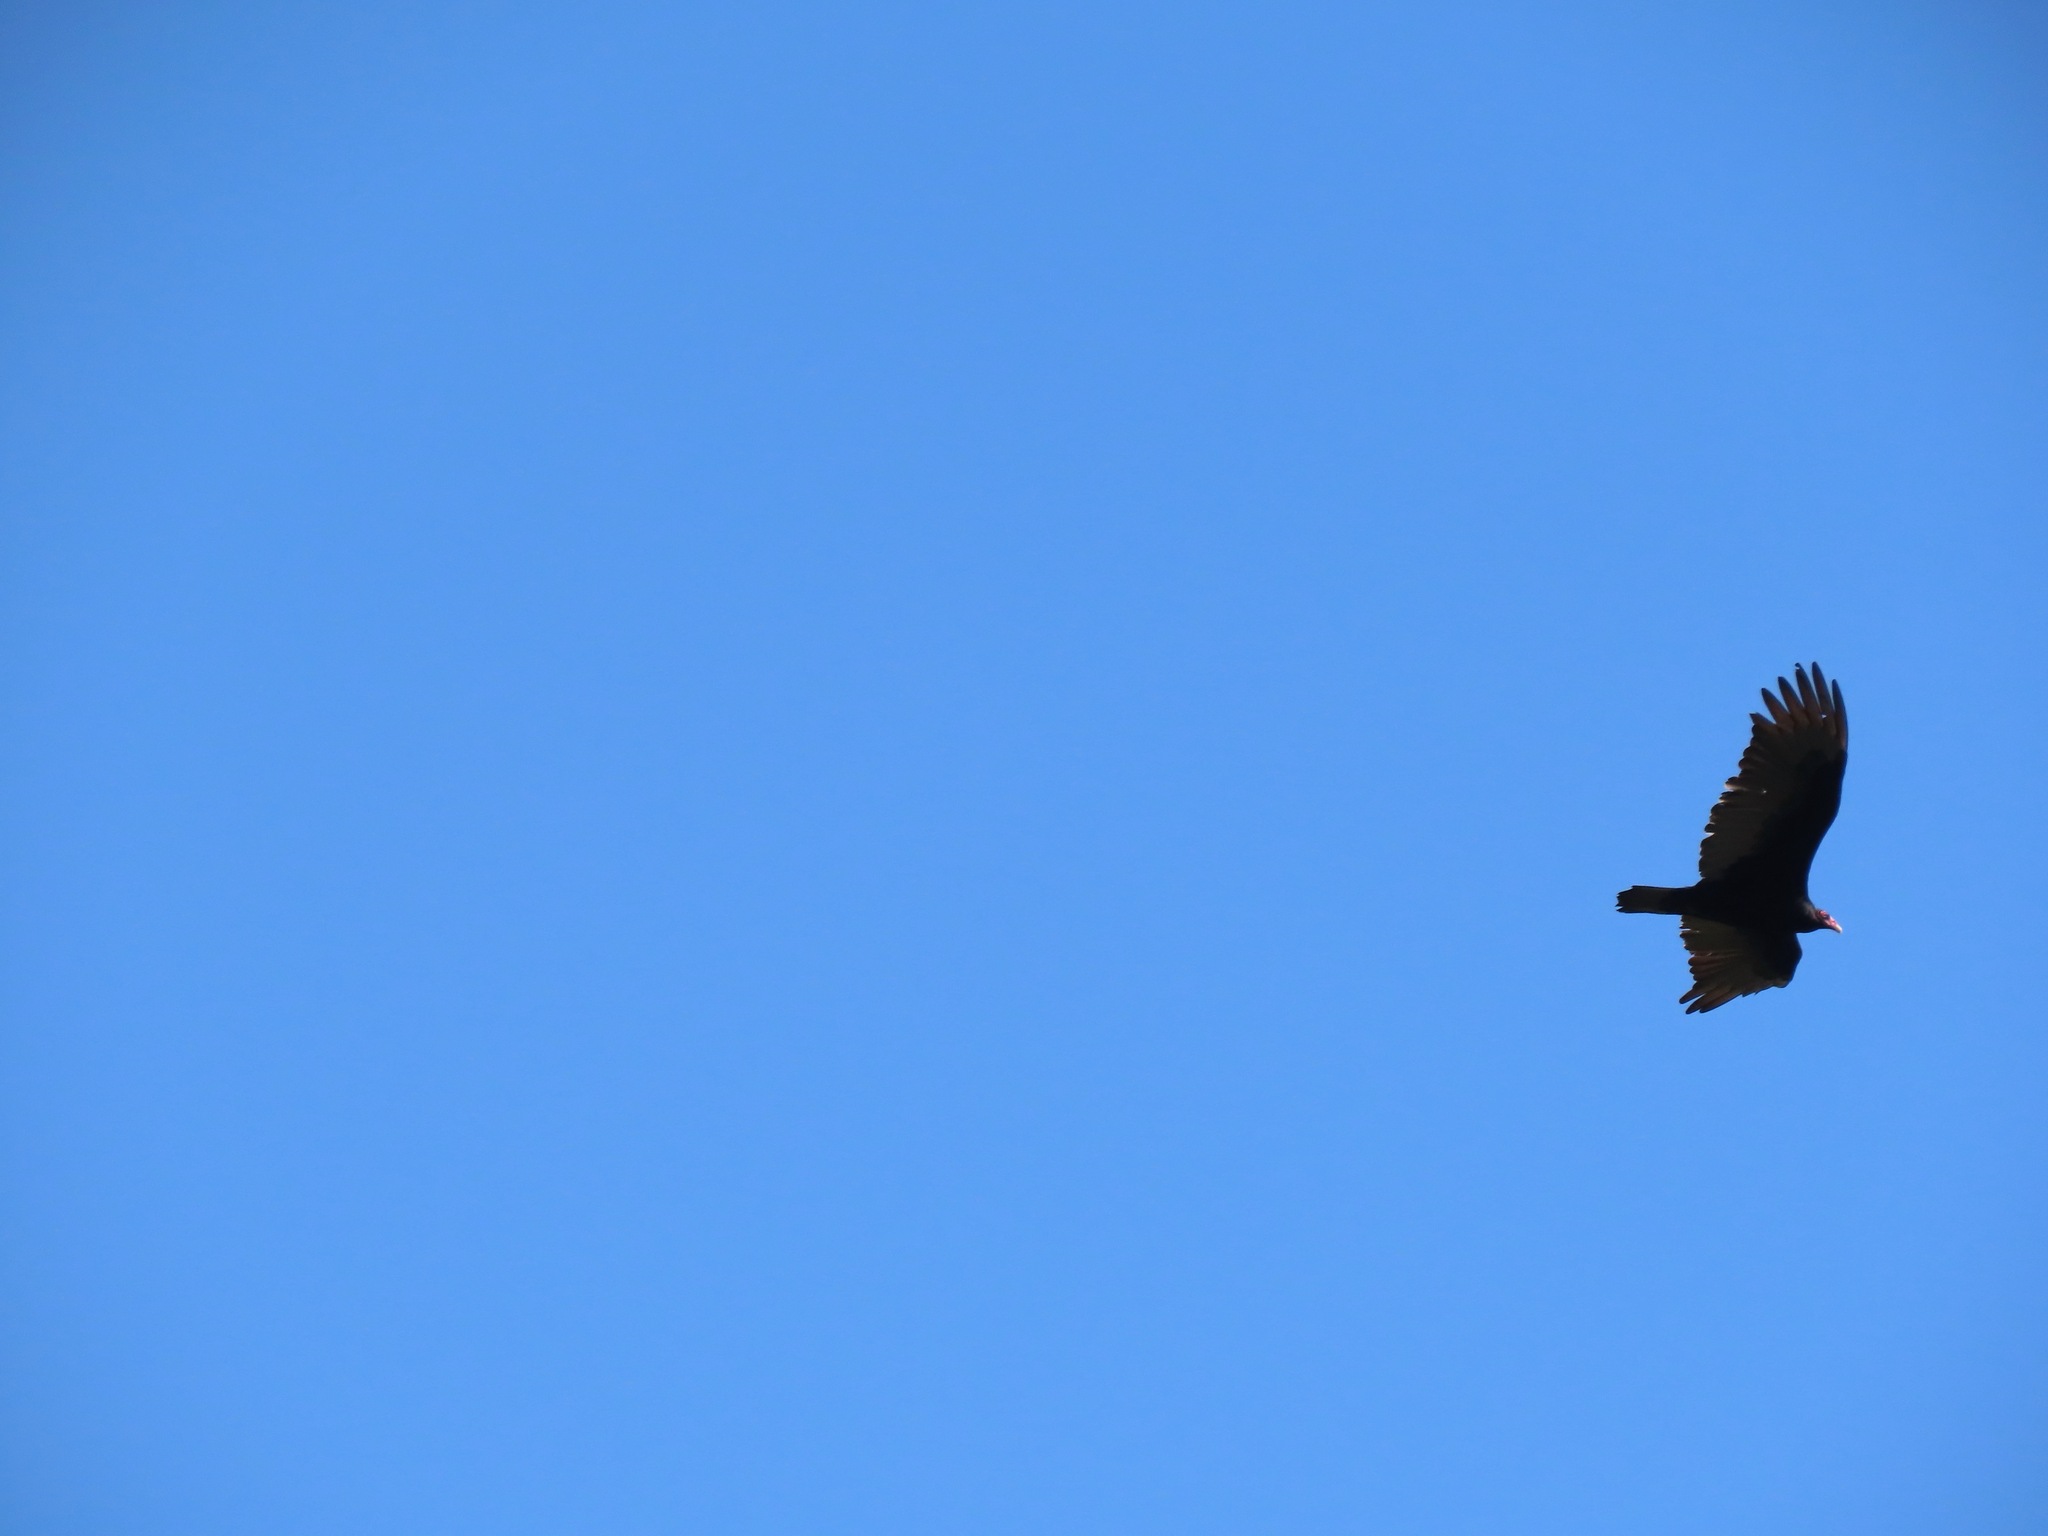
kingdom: Animalia
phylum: Chordata
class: Aves
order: Accipitriformes
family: Cathartidae
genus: Cathartes
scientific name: Cathartes aura
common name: Turkey vulture
